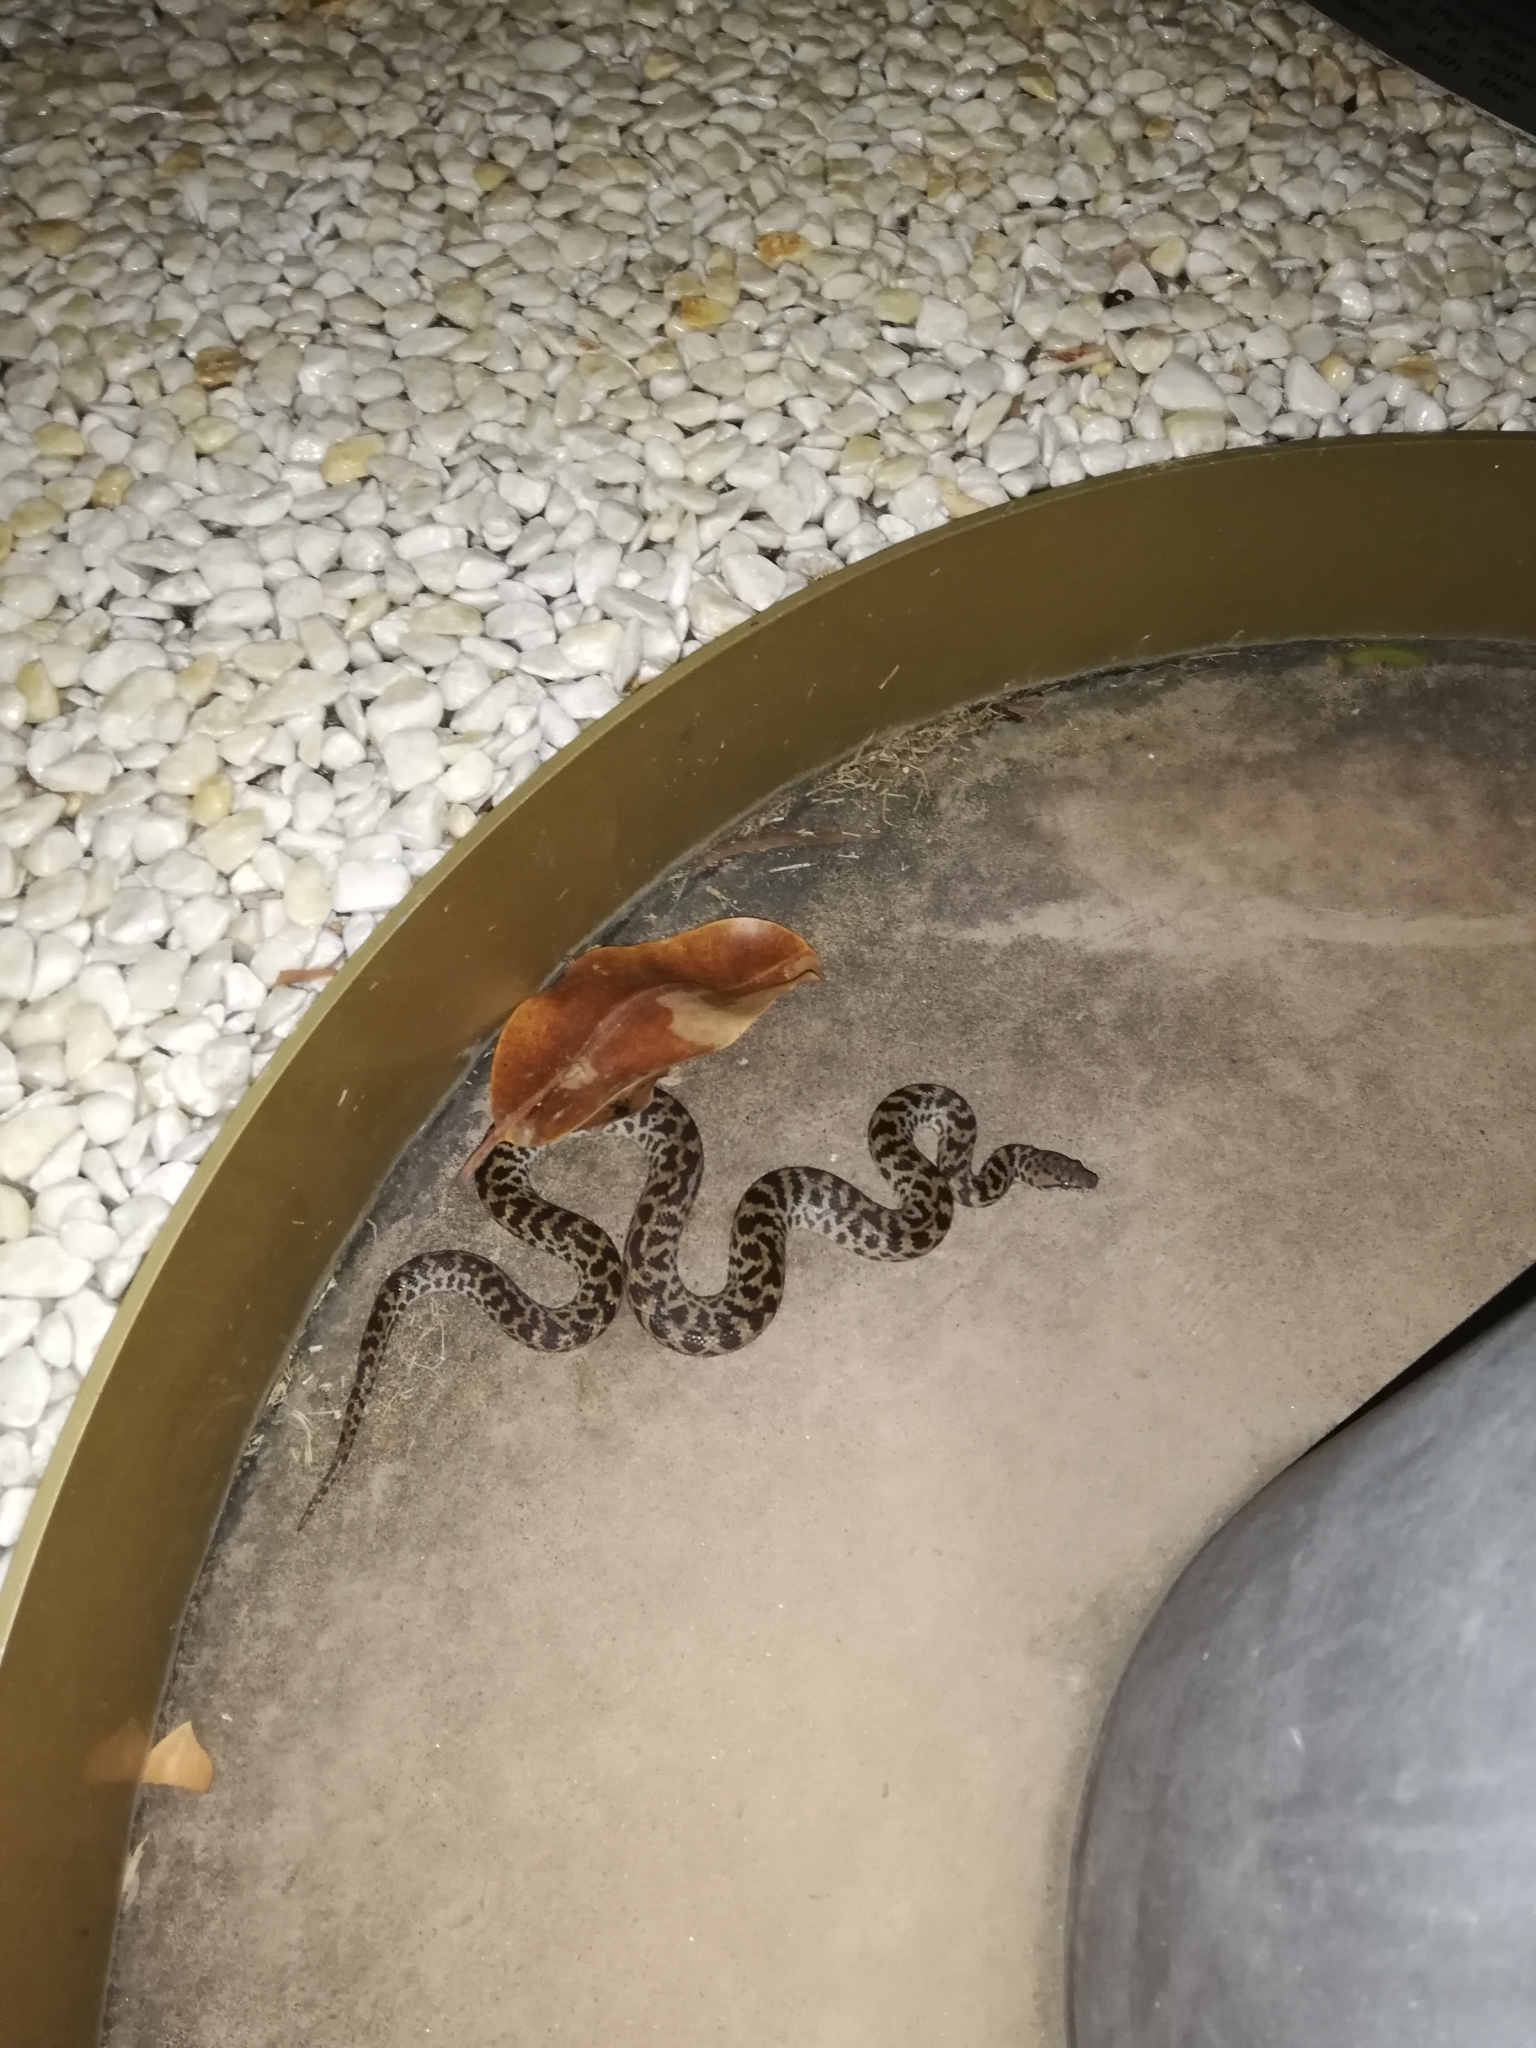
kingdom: Animalia
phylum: Chordata
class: Squamata
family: Pythonidae
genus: Antaresia
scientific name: Antaresia maculosa
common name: Eastern childrens python
